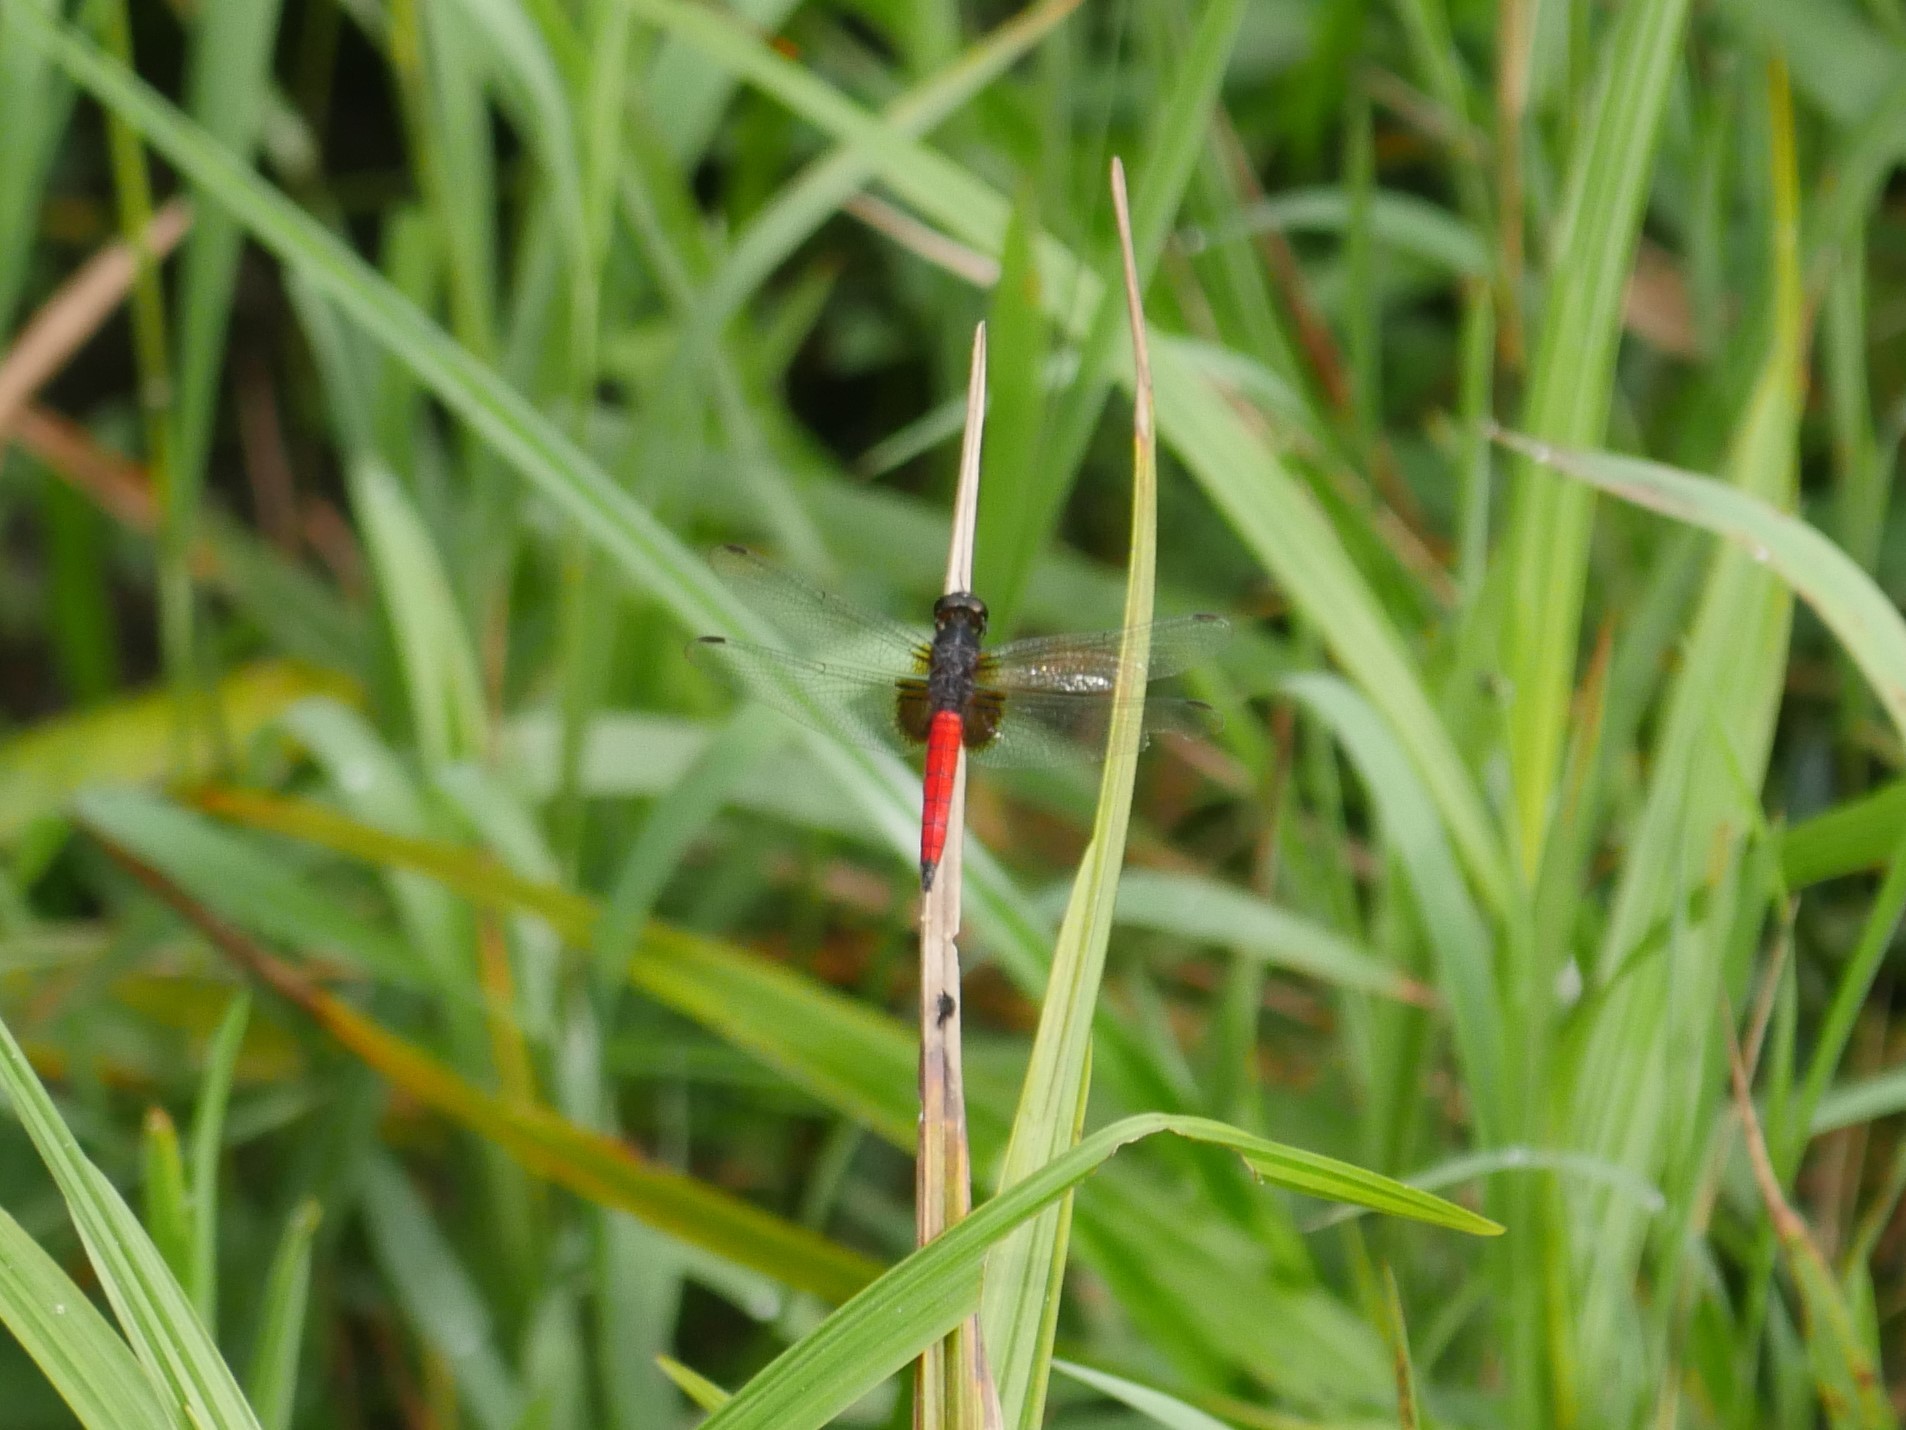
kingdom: Animalia
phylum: Arthropoda
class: Insecta
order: Odonata
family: Libellulidae
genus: Hadrothemis
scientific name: Hadrothemis defecta
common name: Scarlet jungleskimmer
